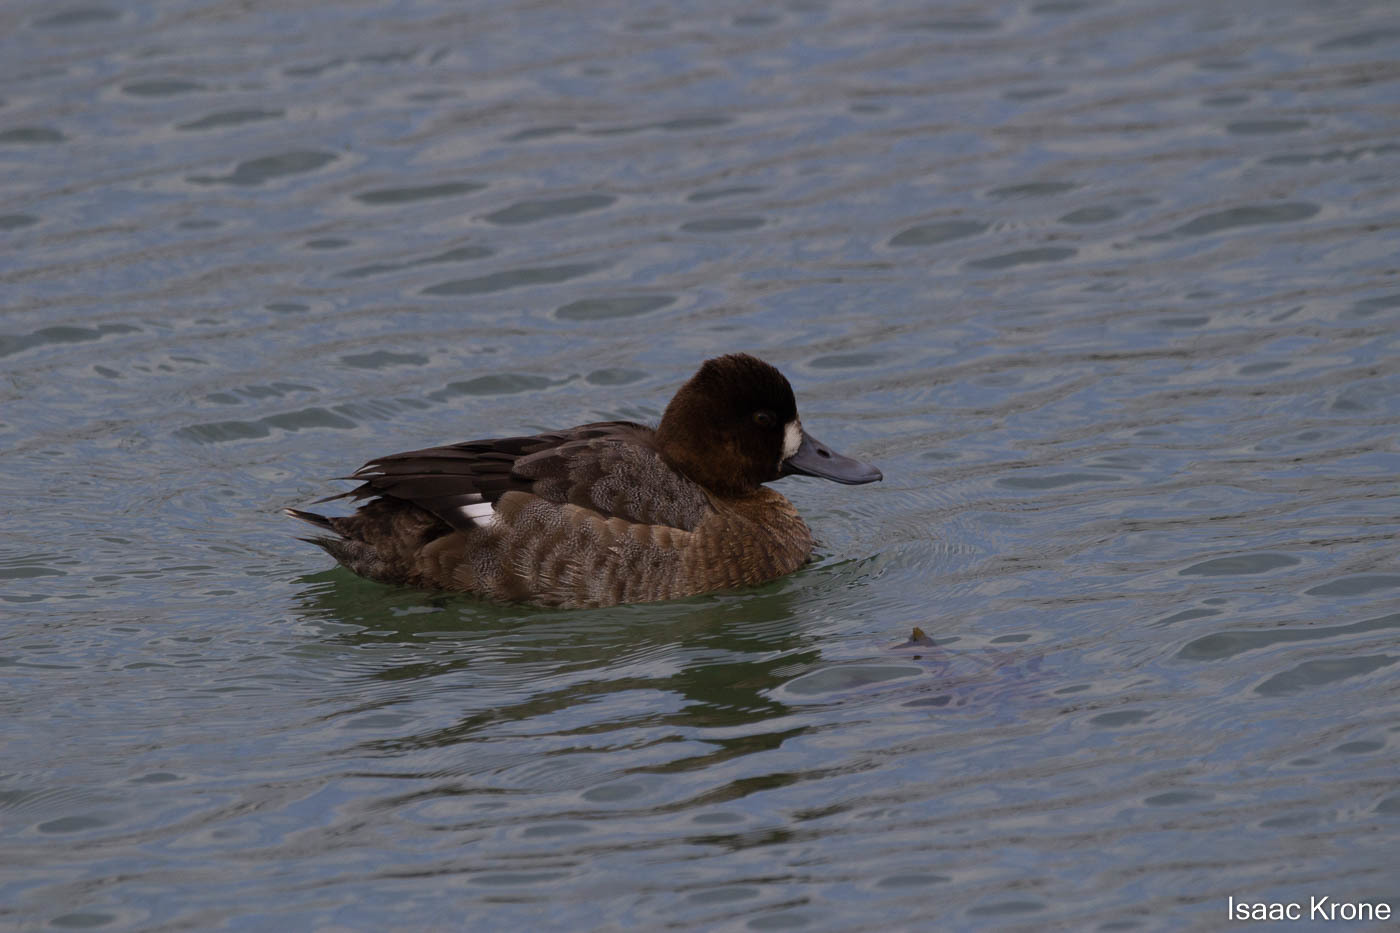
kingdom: Animalia
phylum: Chordata
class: Aves
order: Anseriformes
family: Anatidae
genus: Aythya
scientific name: Aythya affinis
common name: Lesser scaup
